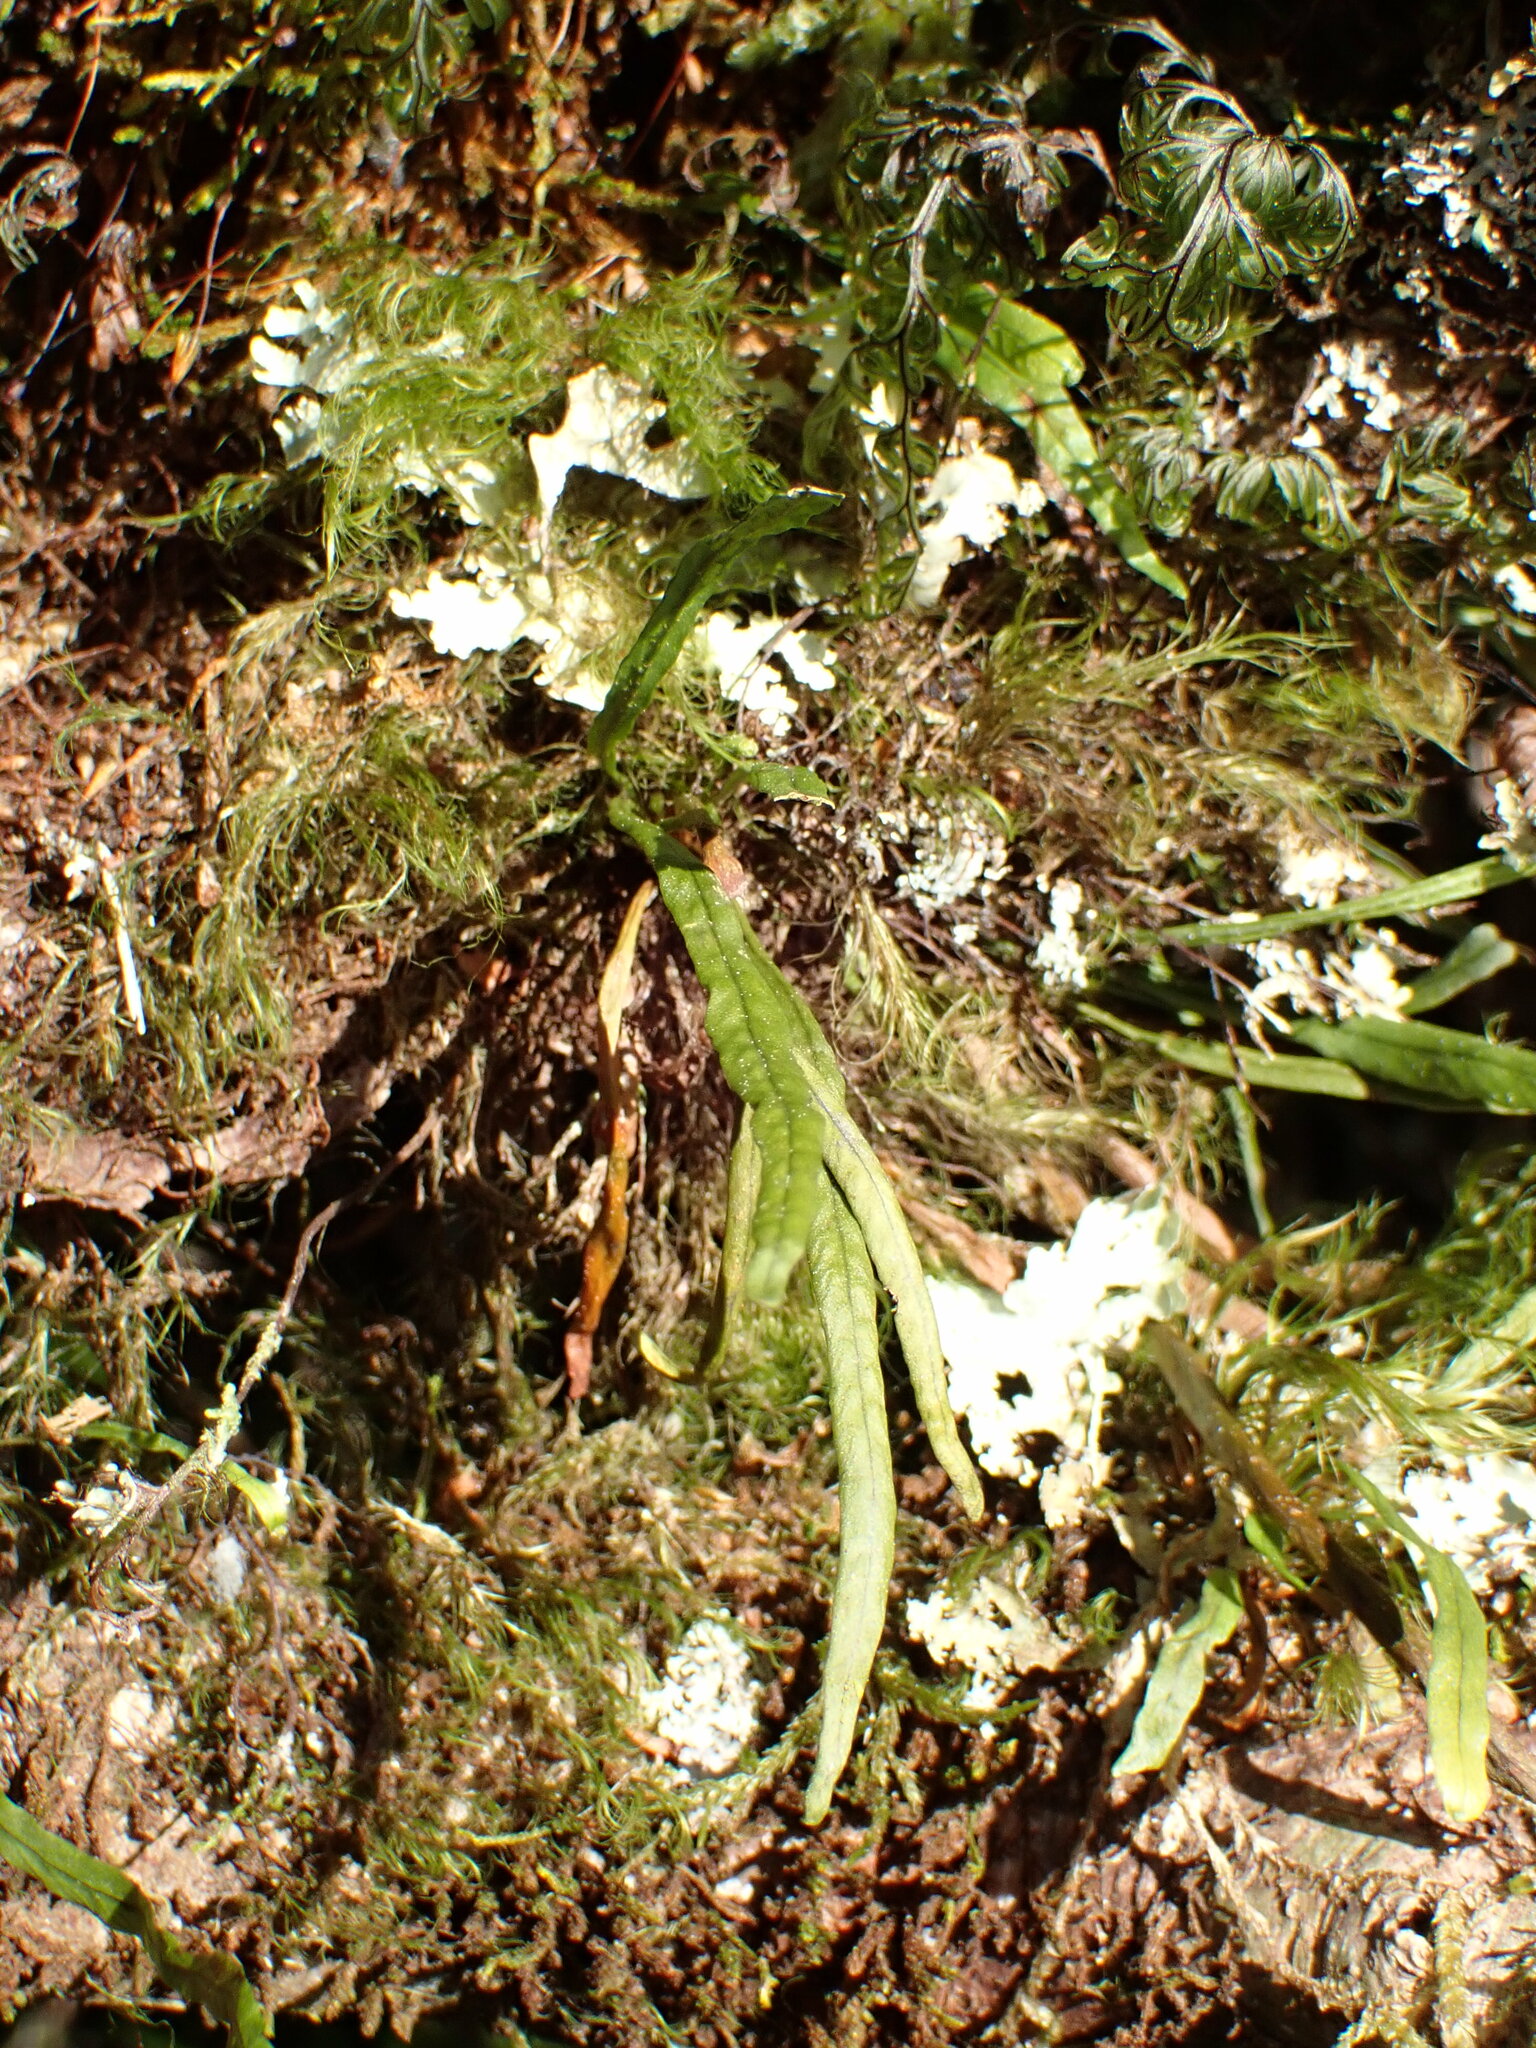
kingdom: Plantae
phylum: Tracheophyta
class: Polypodiopsida
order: Polypodiales
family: Polypodiaceae
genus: Notogrammitis
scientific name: Notogrammitis angustifolia
